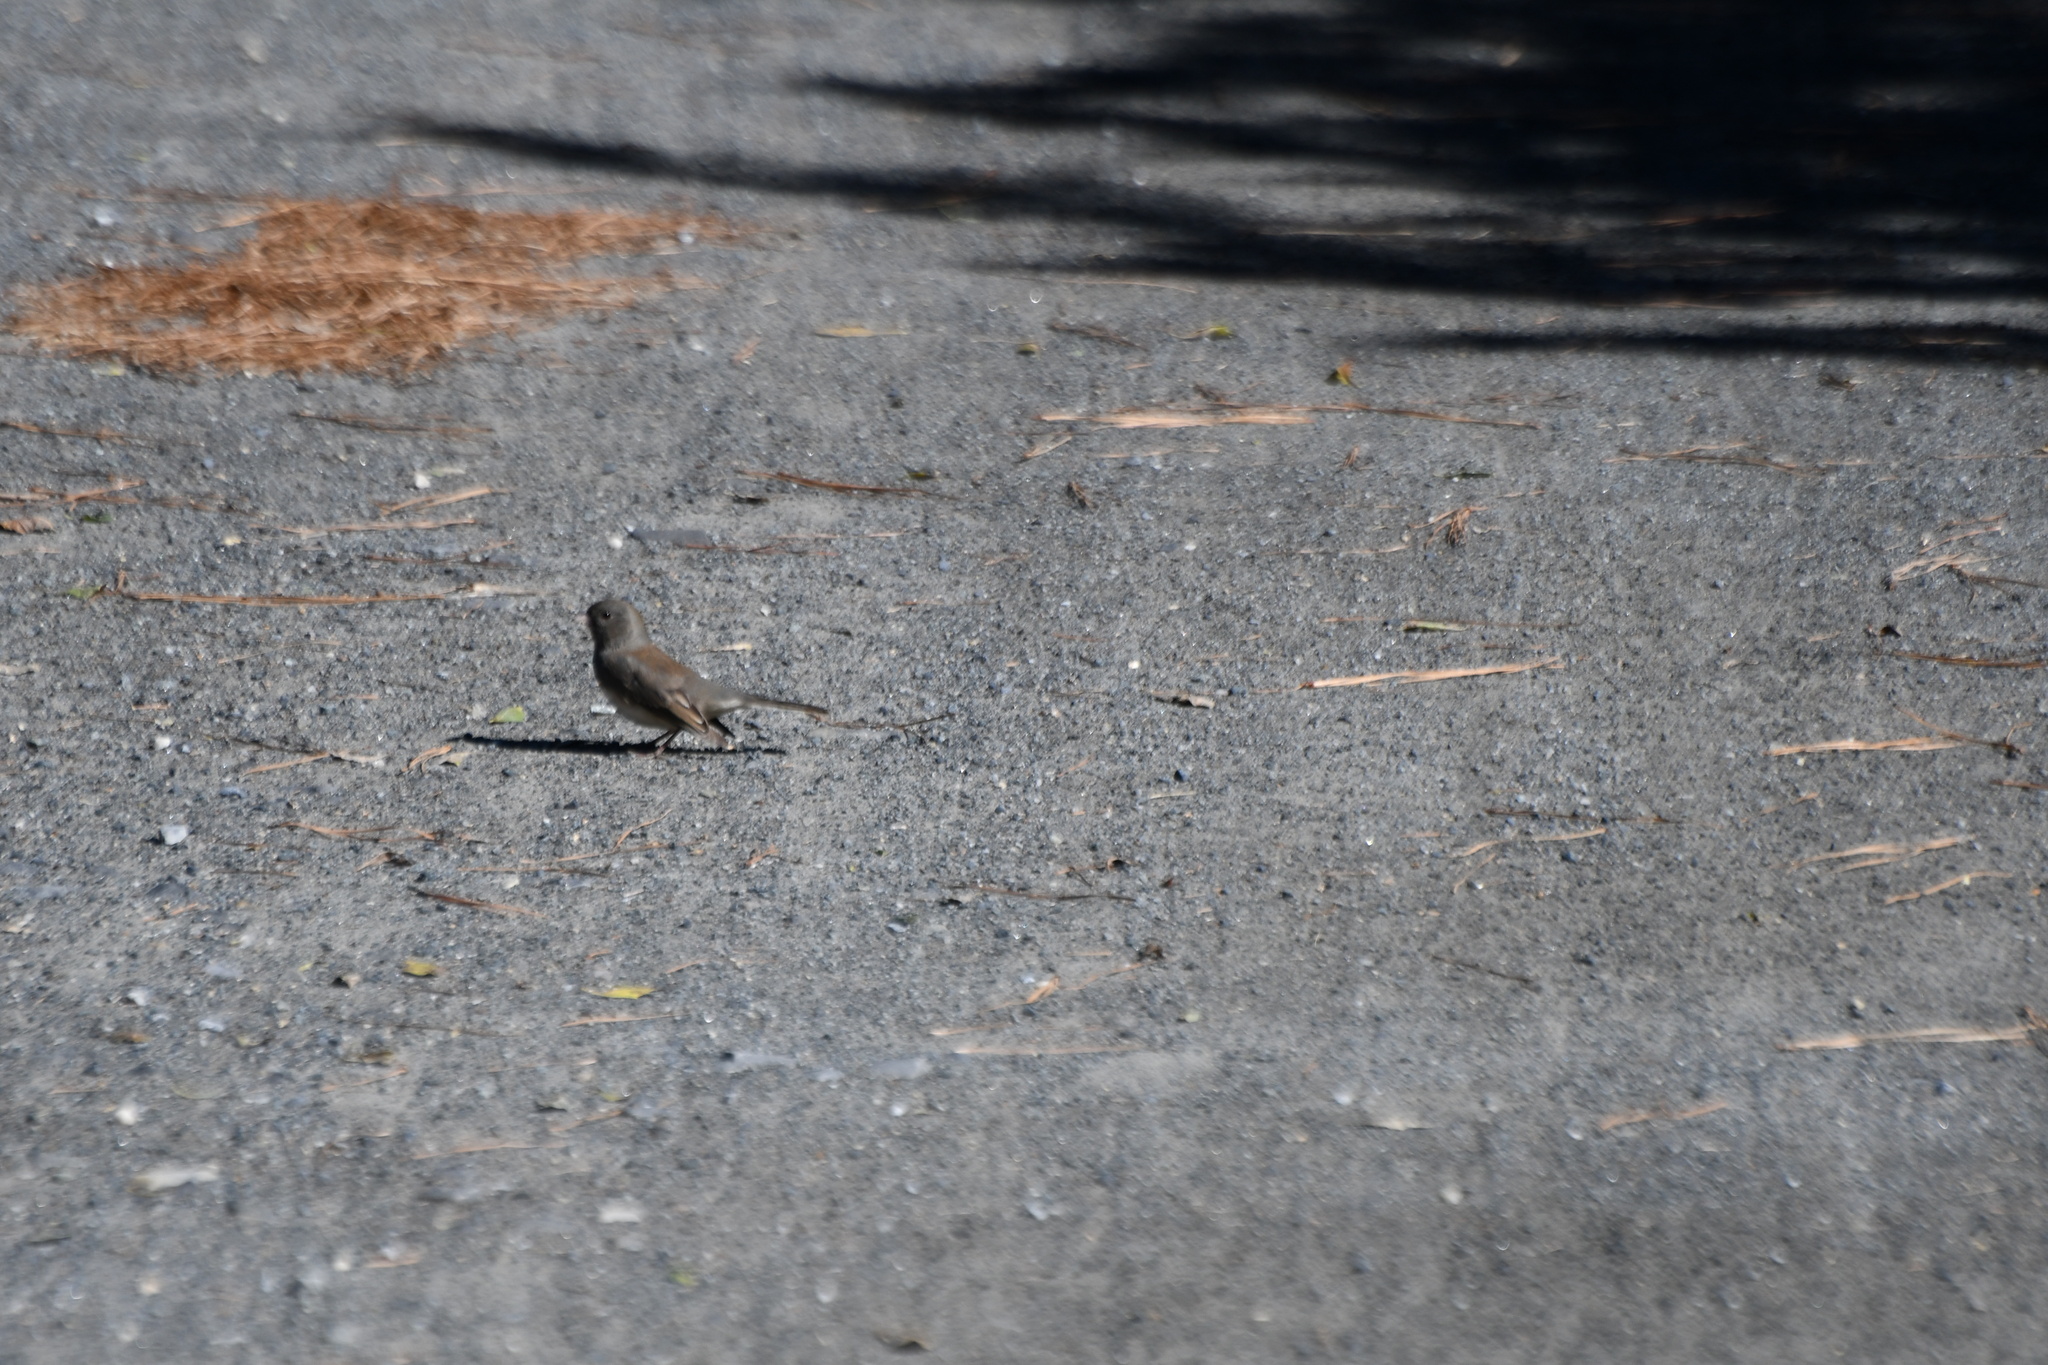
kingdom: Animalia
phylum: Chordata
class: Aves
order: Passeriformes
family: Passerellidae
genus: Junco
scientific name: Junco hyemalis
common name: Dark-eyed junco
